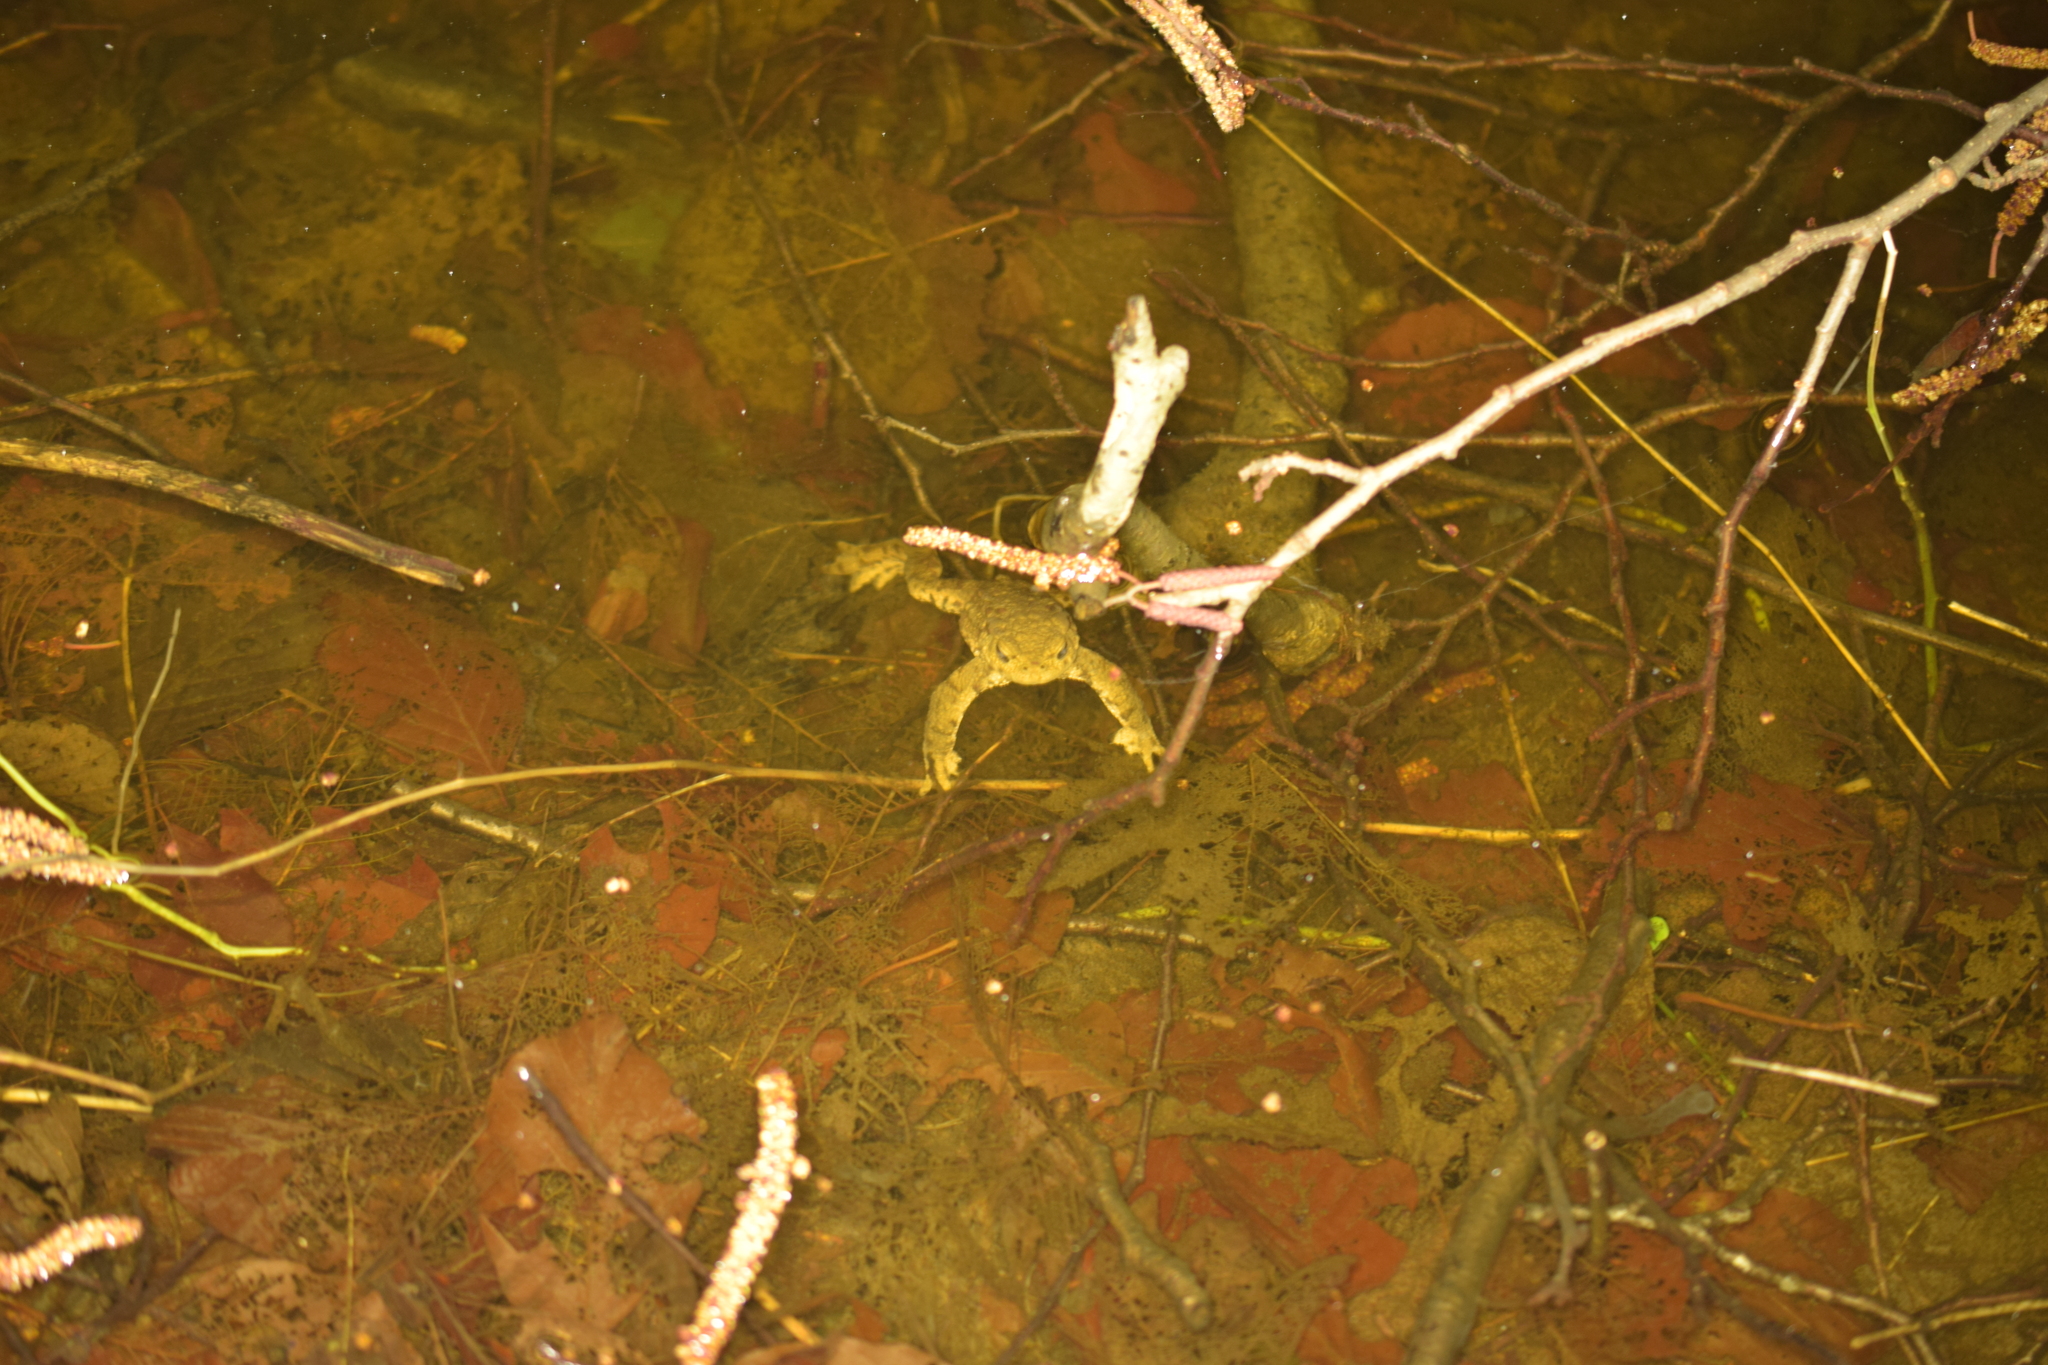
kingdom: Animalia
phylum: Chordata
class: Amphibia
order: Anura
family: Bufonidae
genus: Bufo
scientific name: Bufo bufo
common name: Common toad
